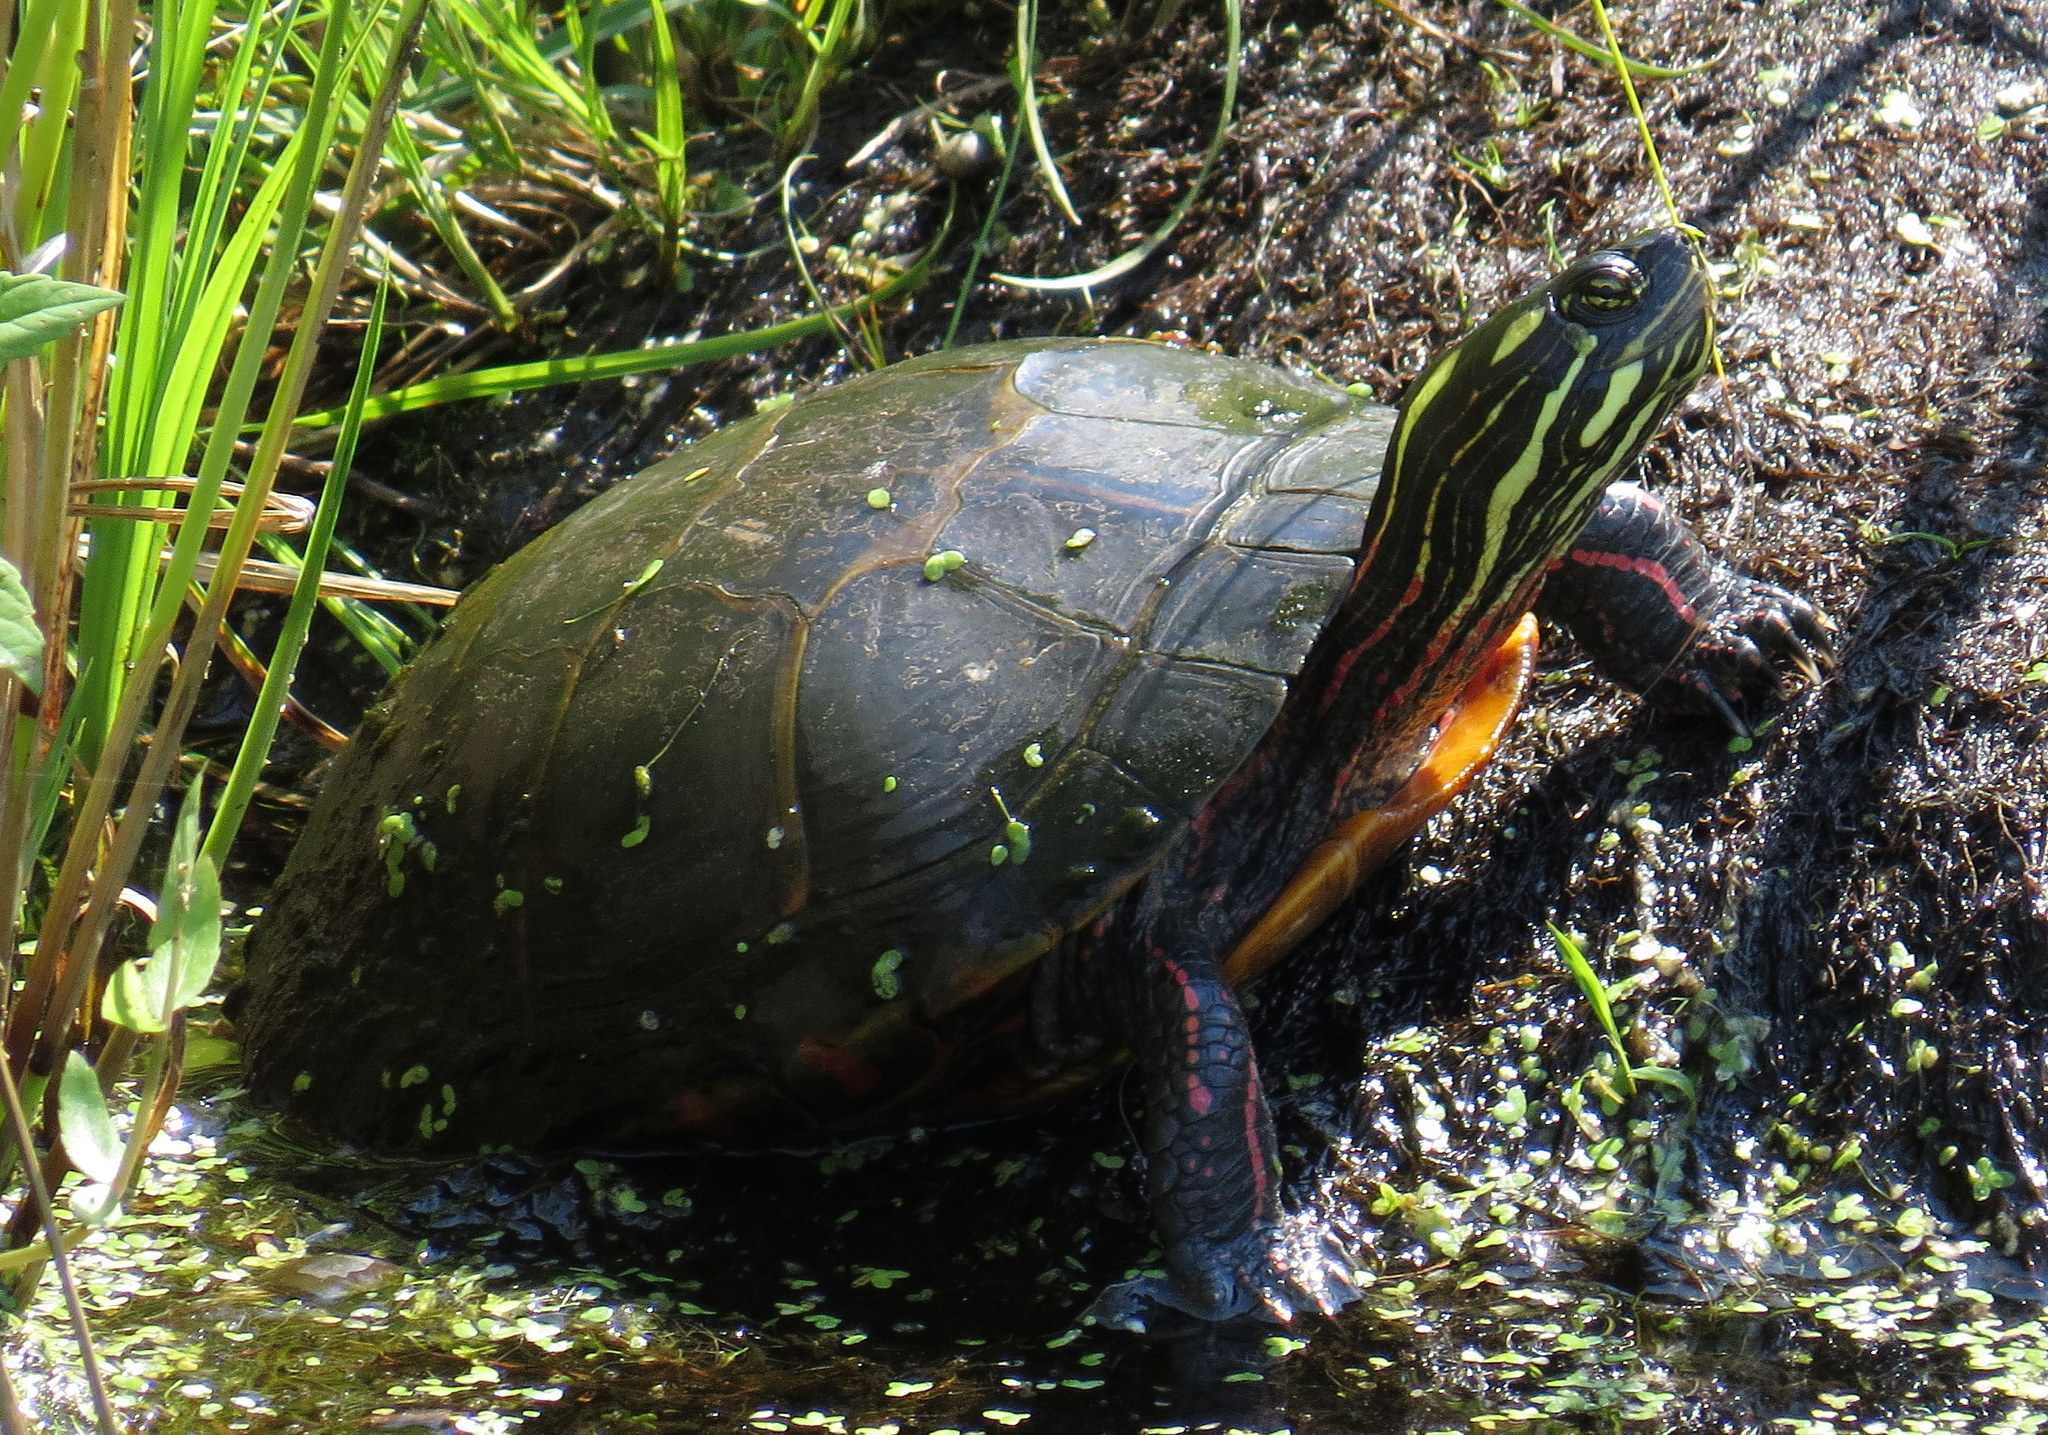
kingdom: Animalia
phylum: Chordata
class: Testudines
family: Emydidae
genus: Chrysemys
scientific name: Chrysemys picta
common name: Painted turtle
